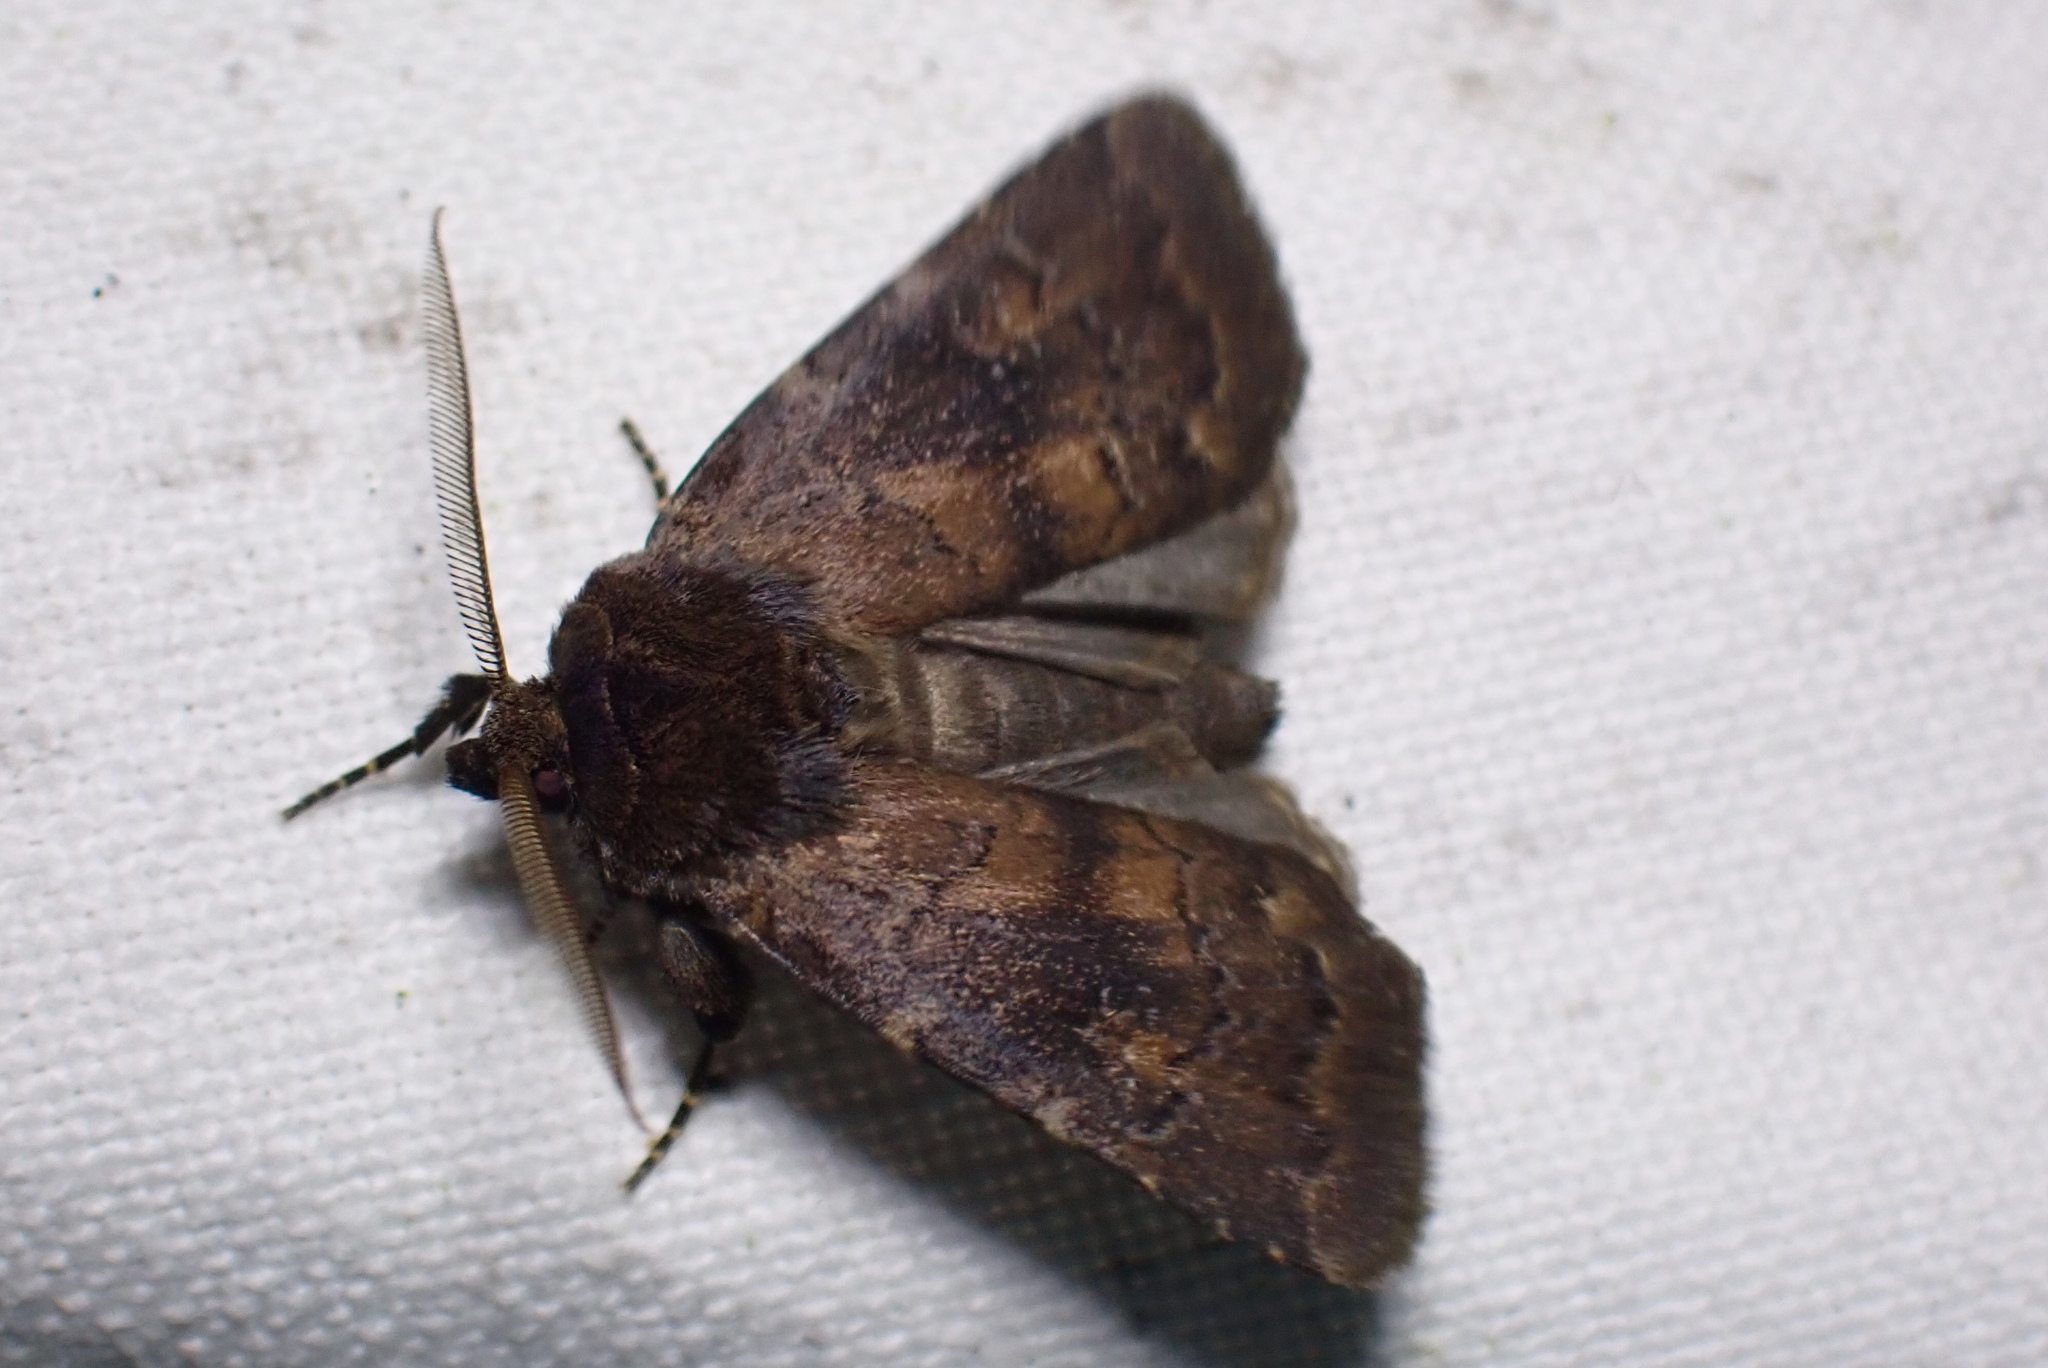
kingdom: Animalia
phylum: Arthropoda
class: Insecta
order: Lepidoptera
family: Noctuidae
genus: Charanyca
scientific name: Charanyca ferruginea
